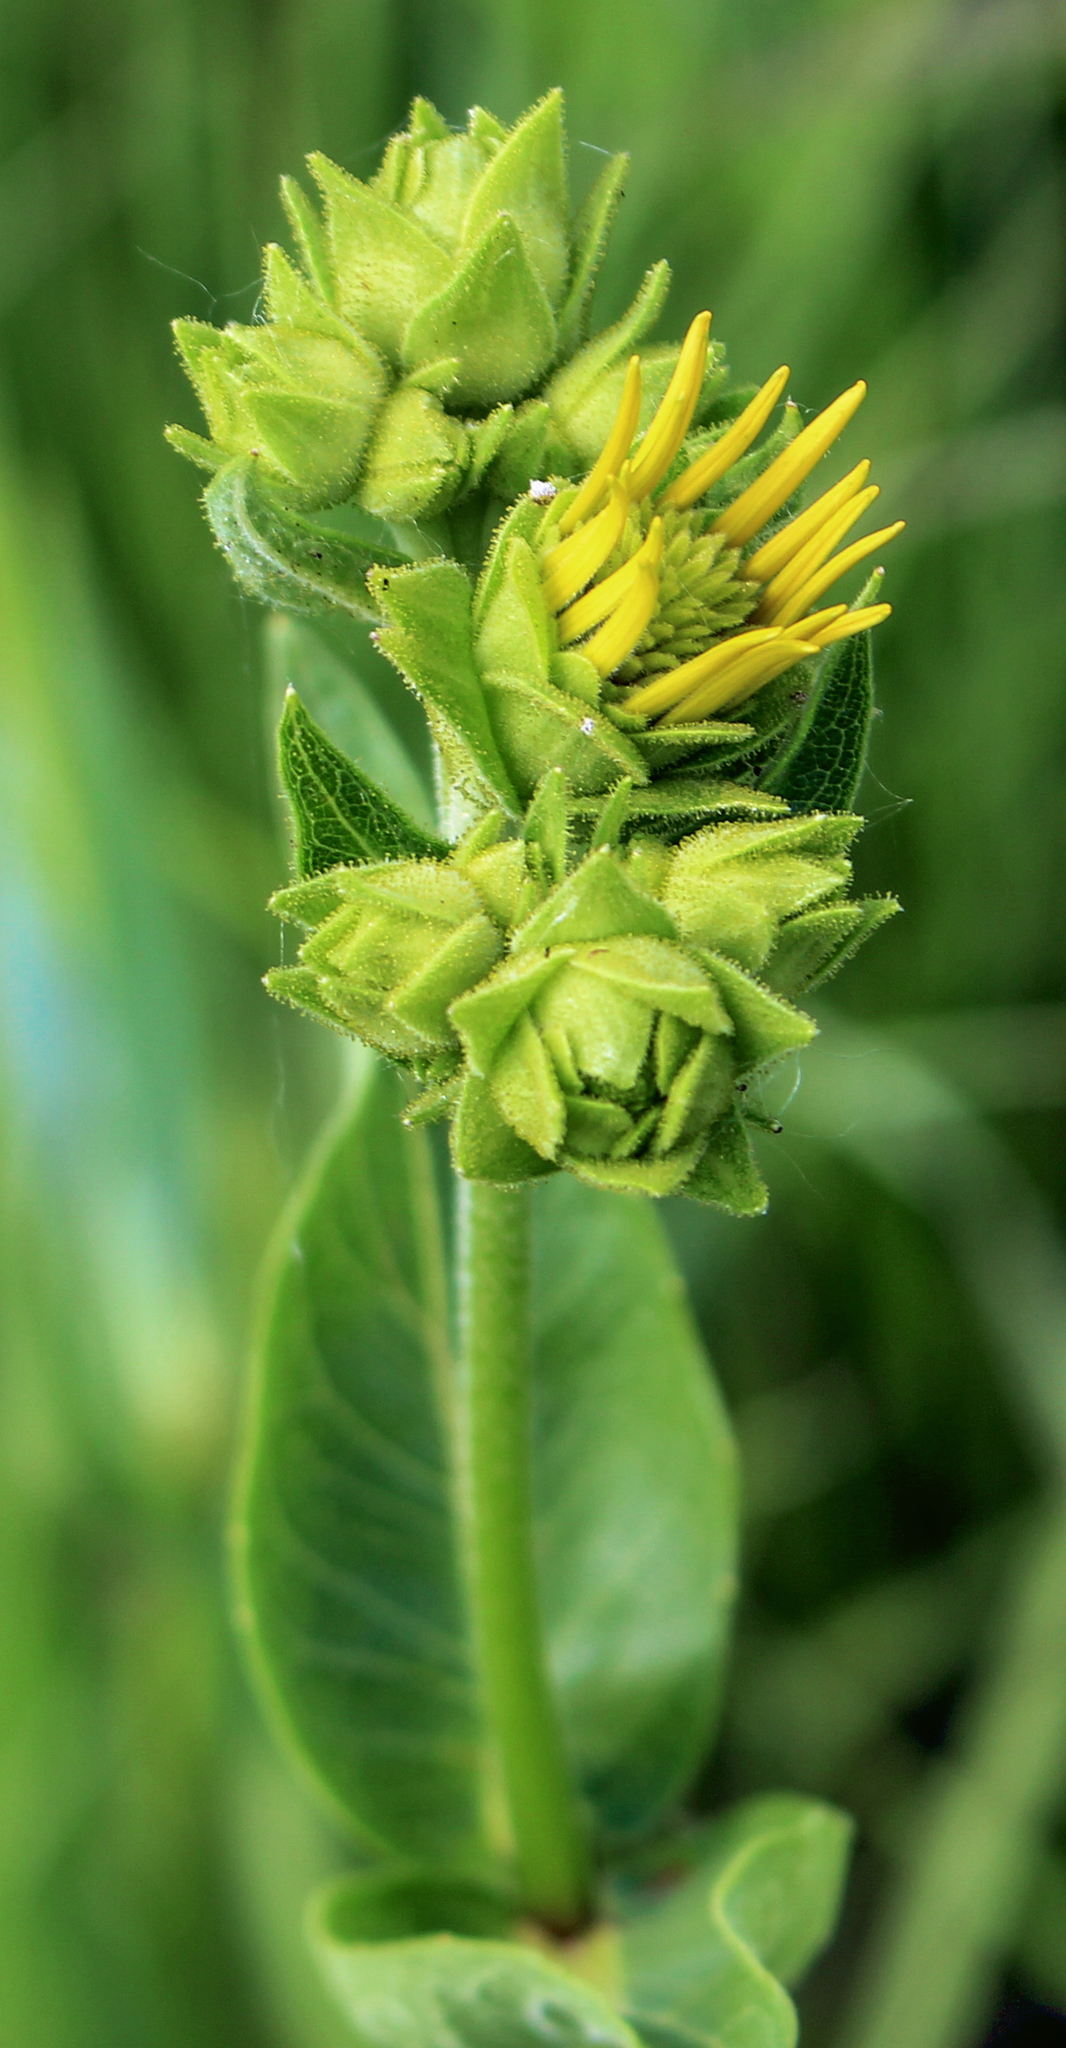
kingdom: Plantae
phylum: Tracheophyta
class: Magnoliopsida
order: Asterales
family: Asteraceae
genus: Silphium
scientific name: Silphium integrifolium
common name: Whole-leaf rosinweed
